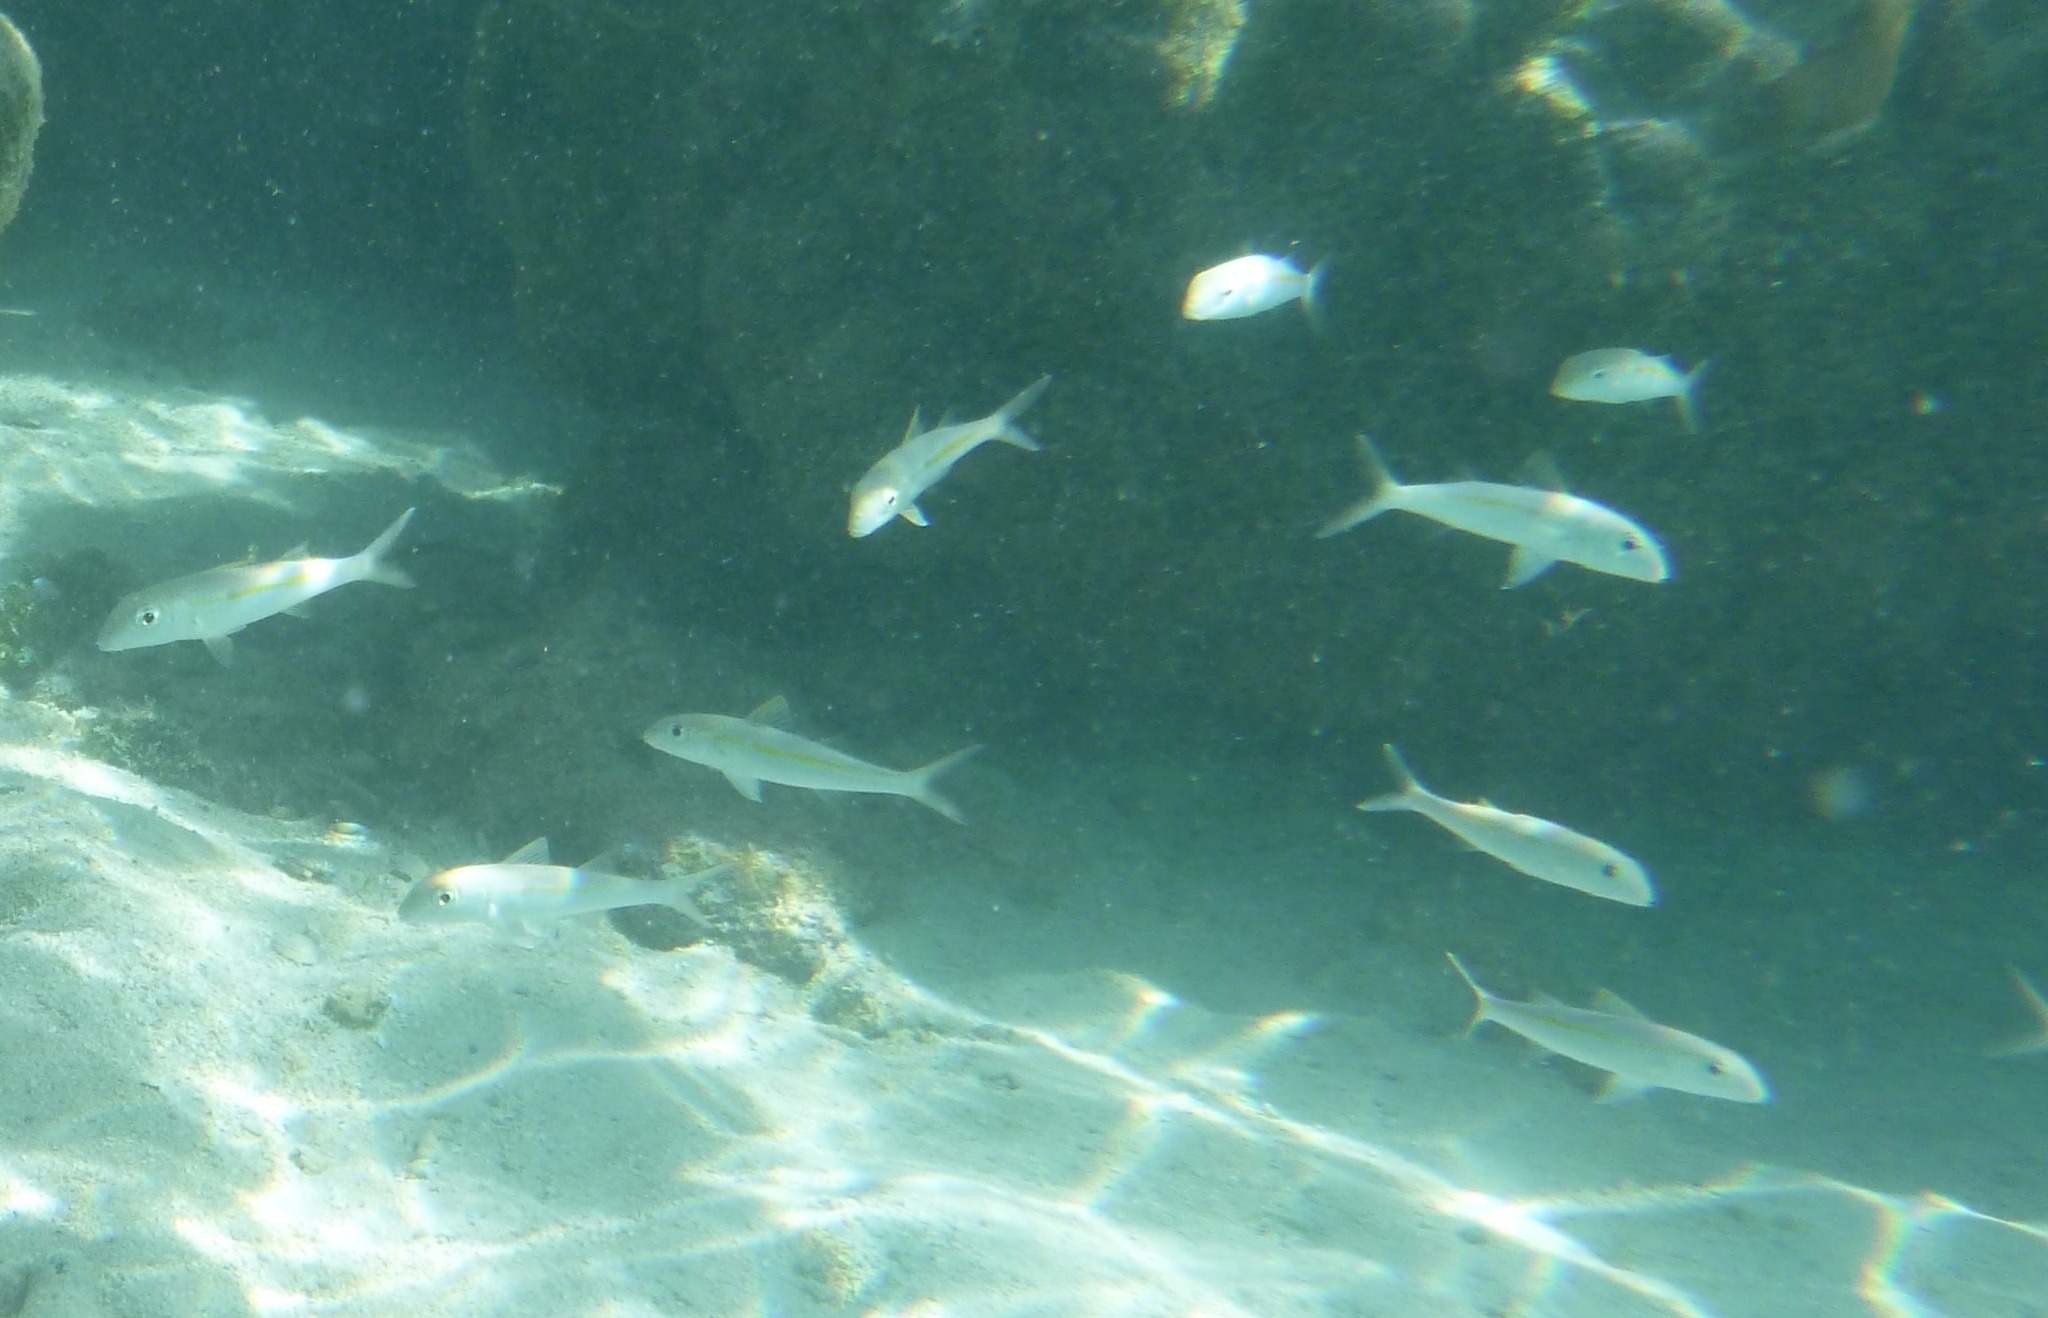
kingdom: Animalia
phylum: Chordata
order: Perciformes
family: Mullidae
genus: Mulloidichthys
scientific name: Mulloidichthys flavolineatus
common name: Yellowstripe goatfish
